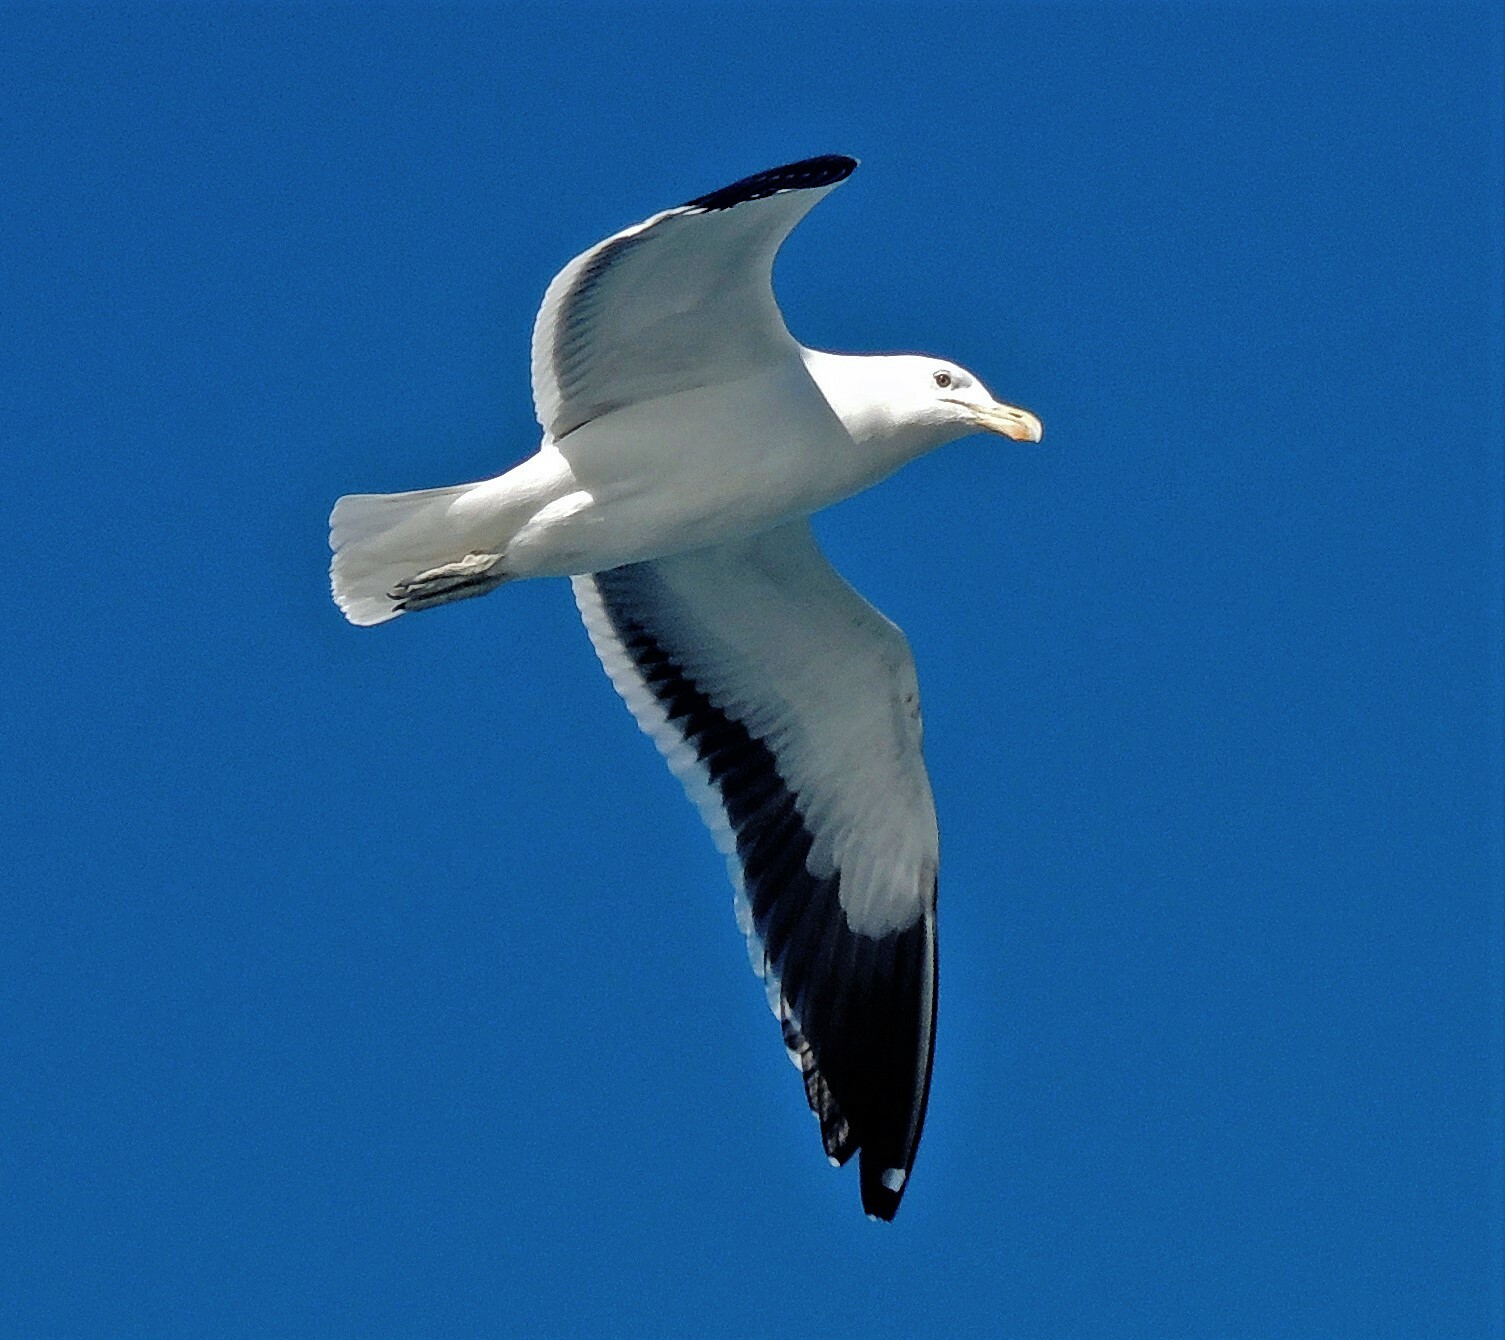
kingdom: Animalia
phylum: Chordata
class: Aves
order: Charadriiformes
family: Laridae
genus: Larus
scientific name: Larus dominicanus
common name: Kelp gull
